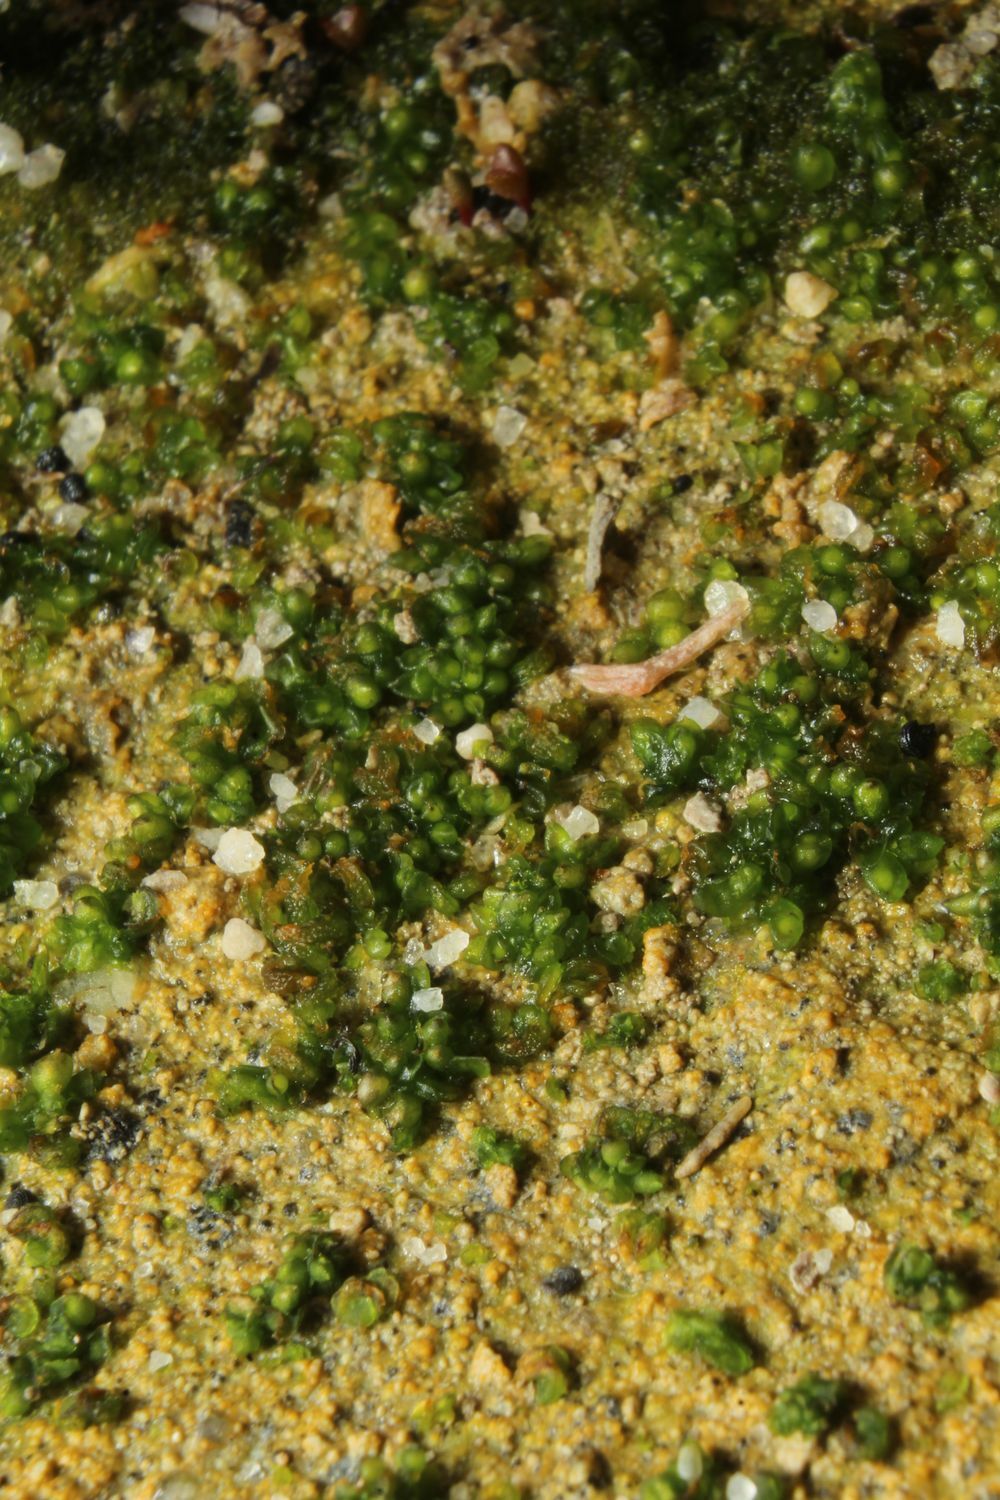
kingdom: Plantae
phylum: Marchantiophyta
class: Marchantiopsida
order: Sphaerocarpales
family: Riellaceae
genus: Austroriella
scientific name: Austroriella salta
